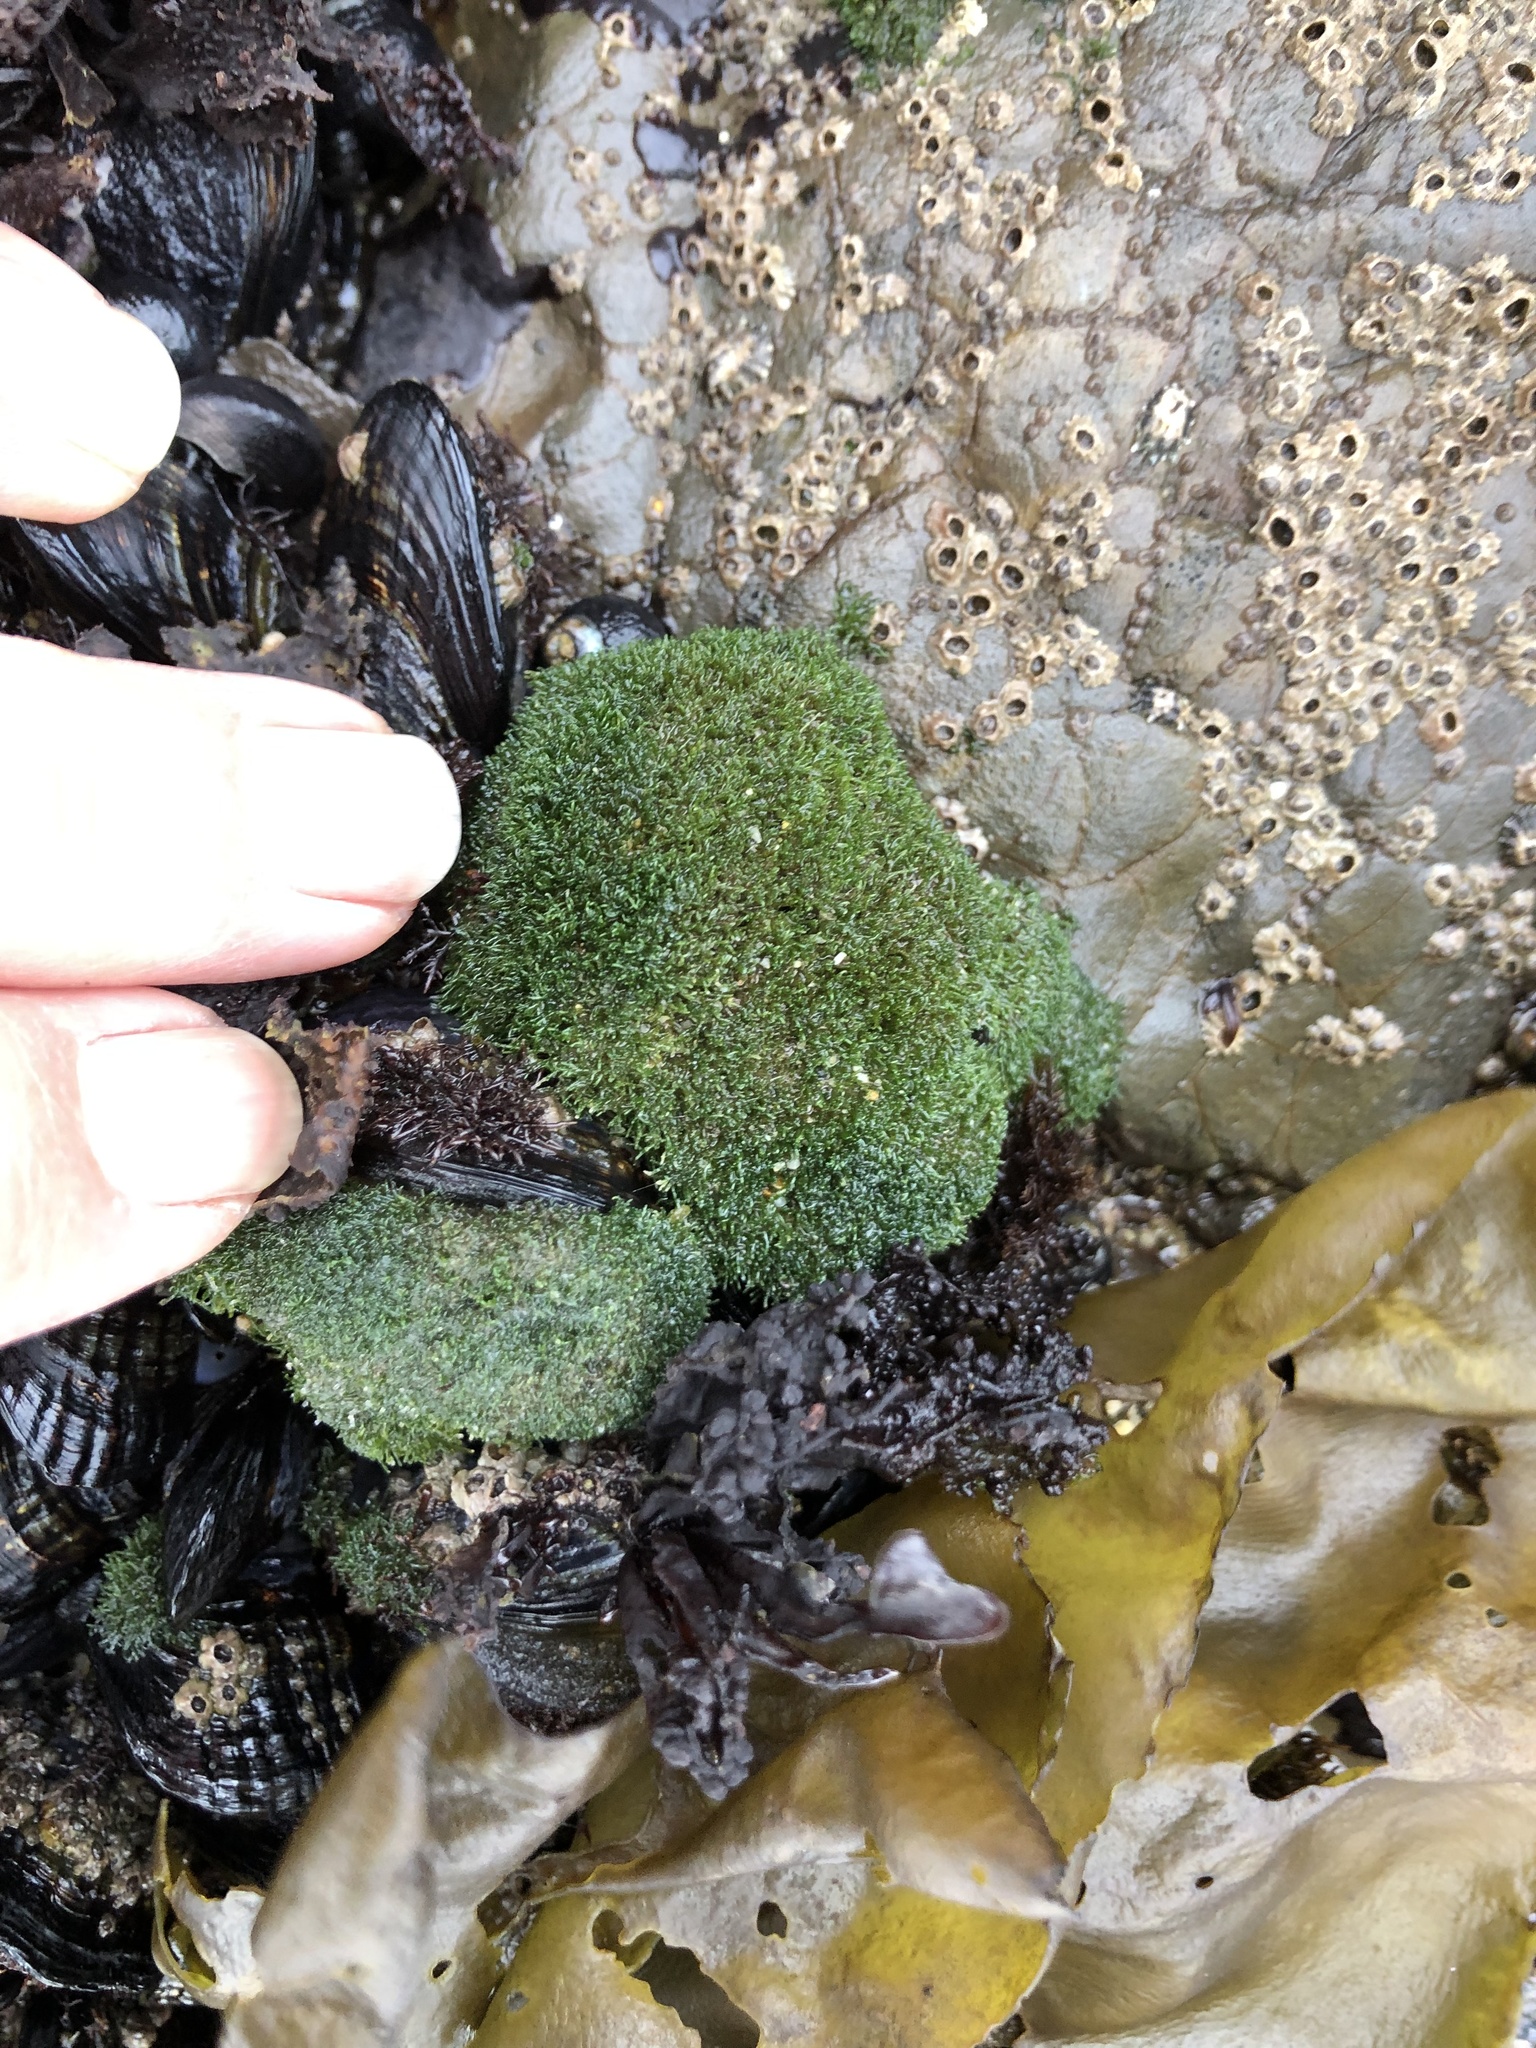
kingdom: Plantae
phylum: Chlorophyta
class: Ulvophyceae
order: Cladophorales
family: Cladophoraceae
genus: Cladophora
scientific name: Cladophora columbiana
